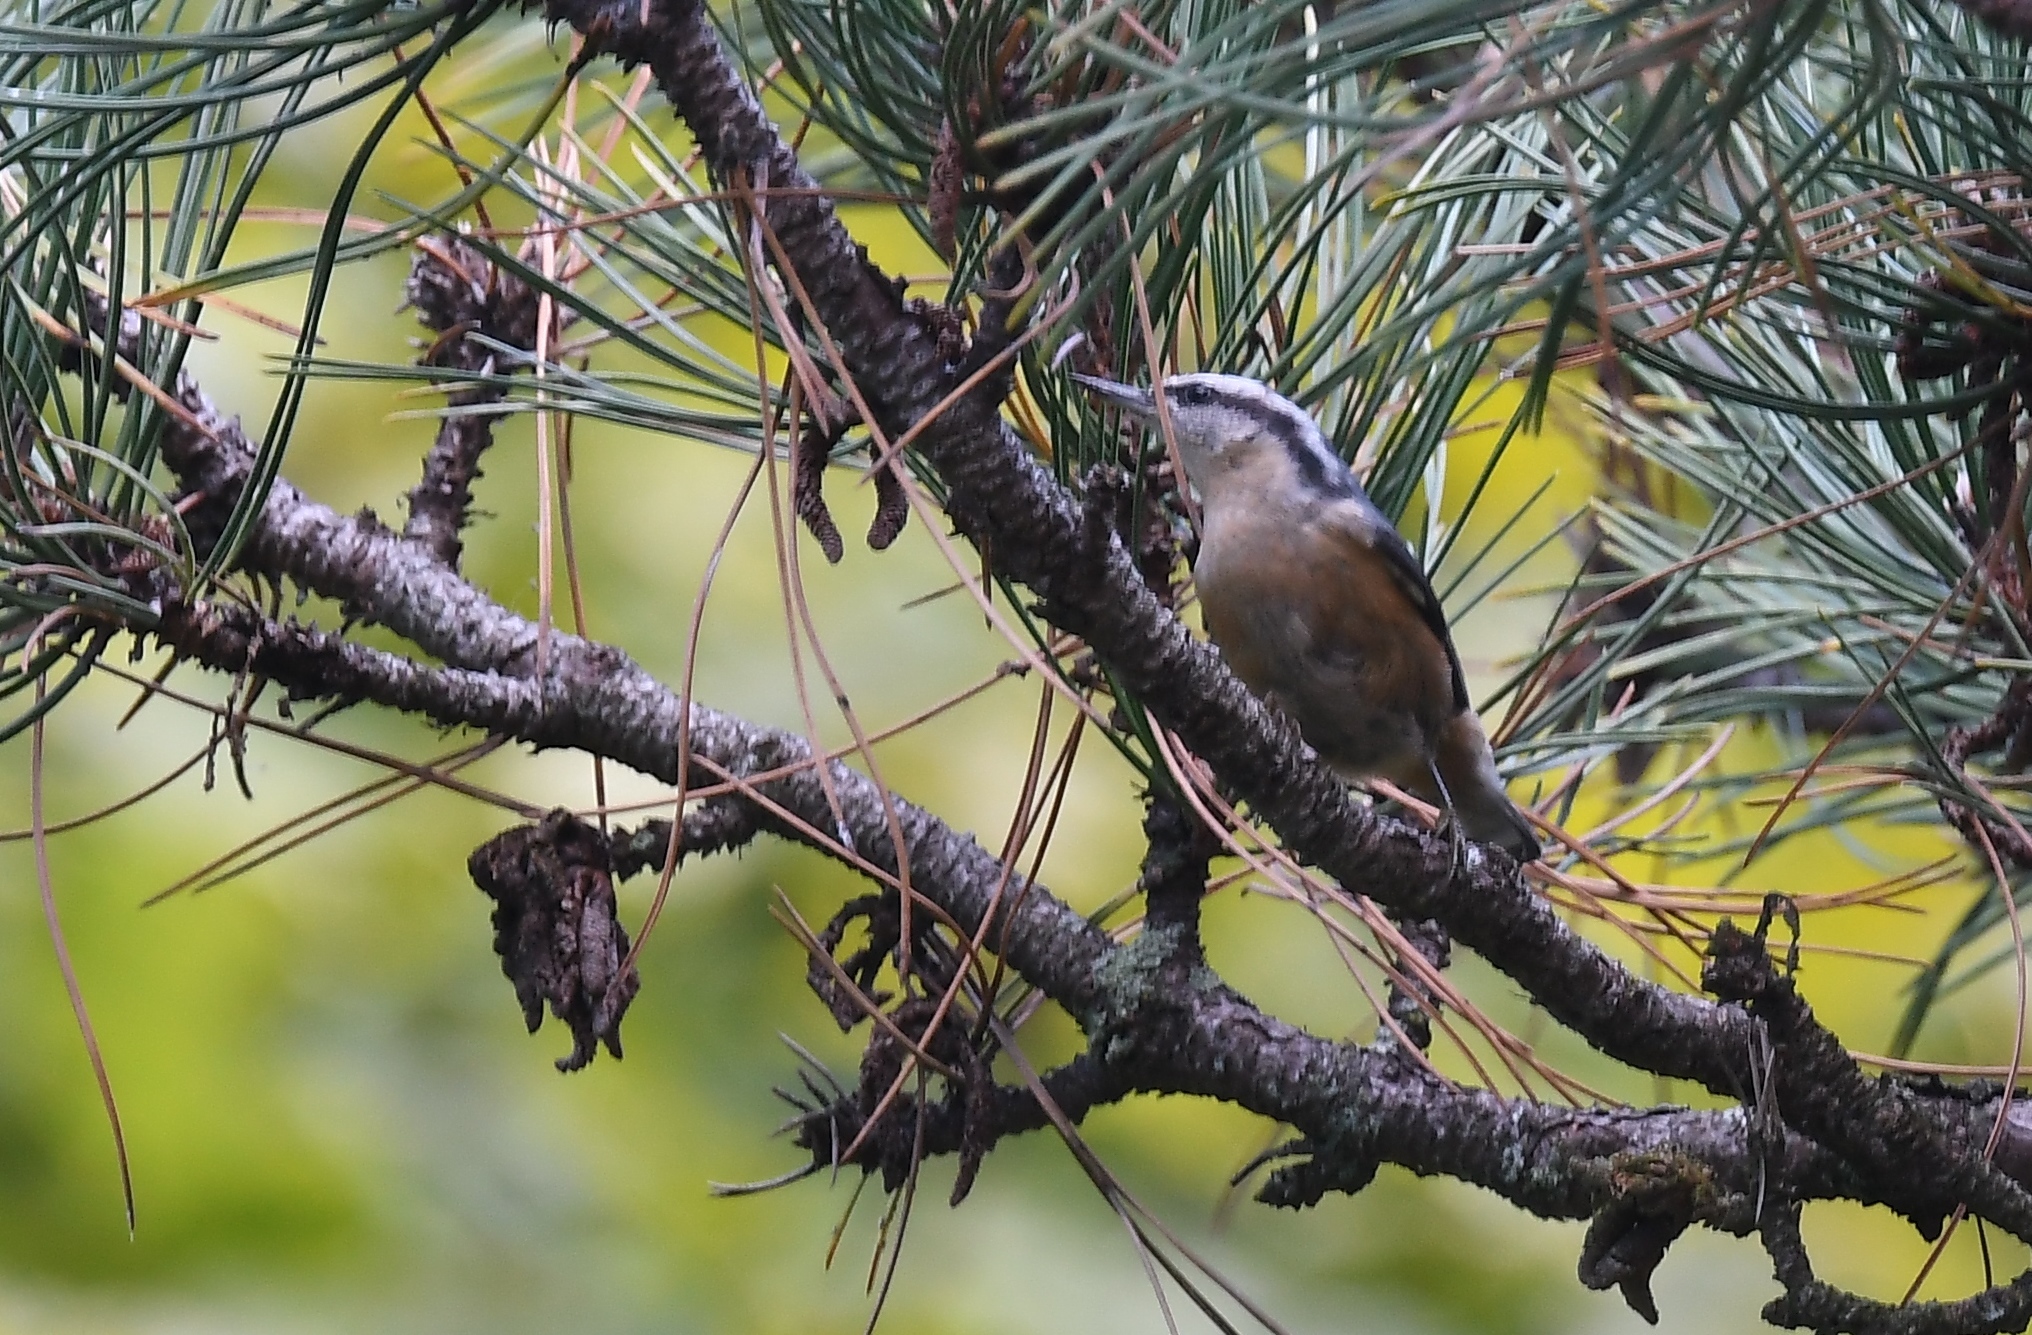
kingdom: Animalia
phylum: Chordata
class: Aves
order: Passeriformes
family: Sittidae
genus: Sitta
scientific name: Sitta canadensis
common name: Red-breasted nuthatch
